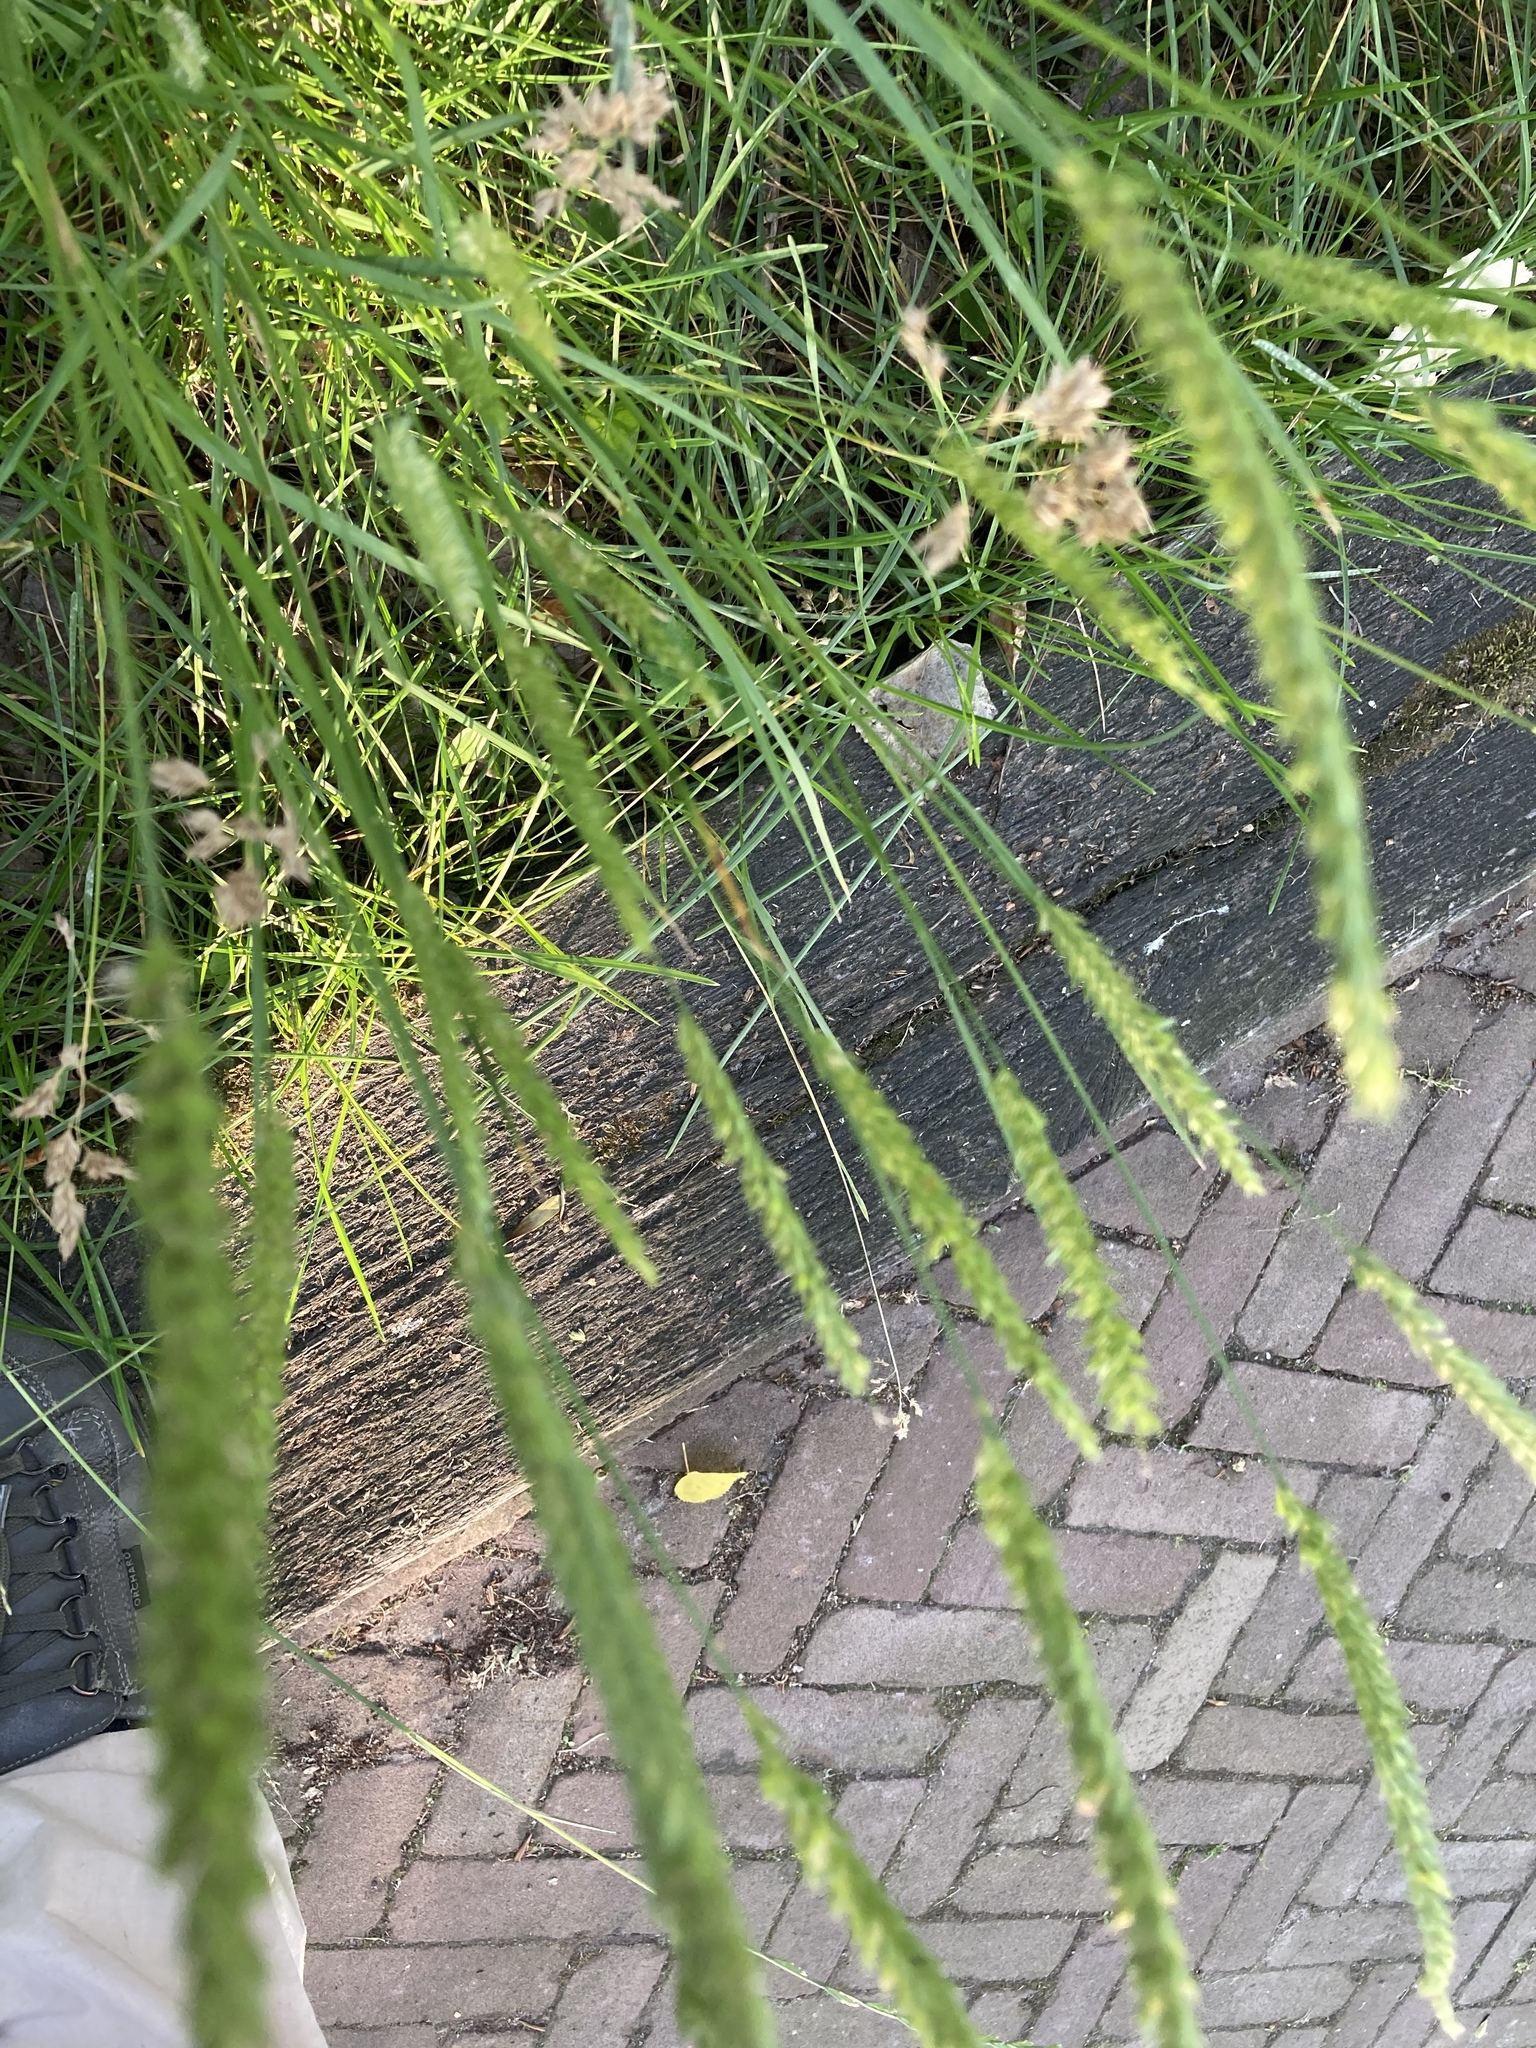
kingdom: Plantae
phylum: Tracheophyta
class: Liliopsida
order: Poales
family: Poaceae
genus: Cynosurus
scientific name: Cynosurus cristatus
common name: Crested dog's-tail
